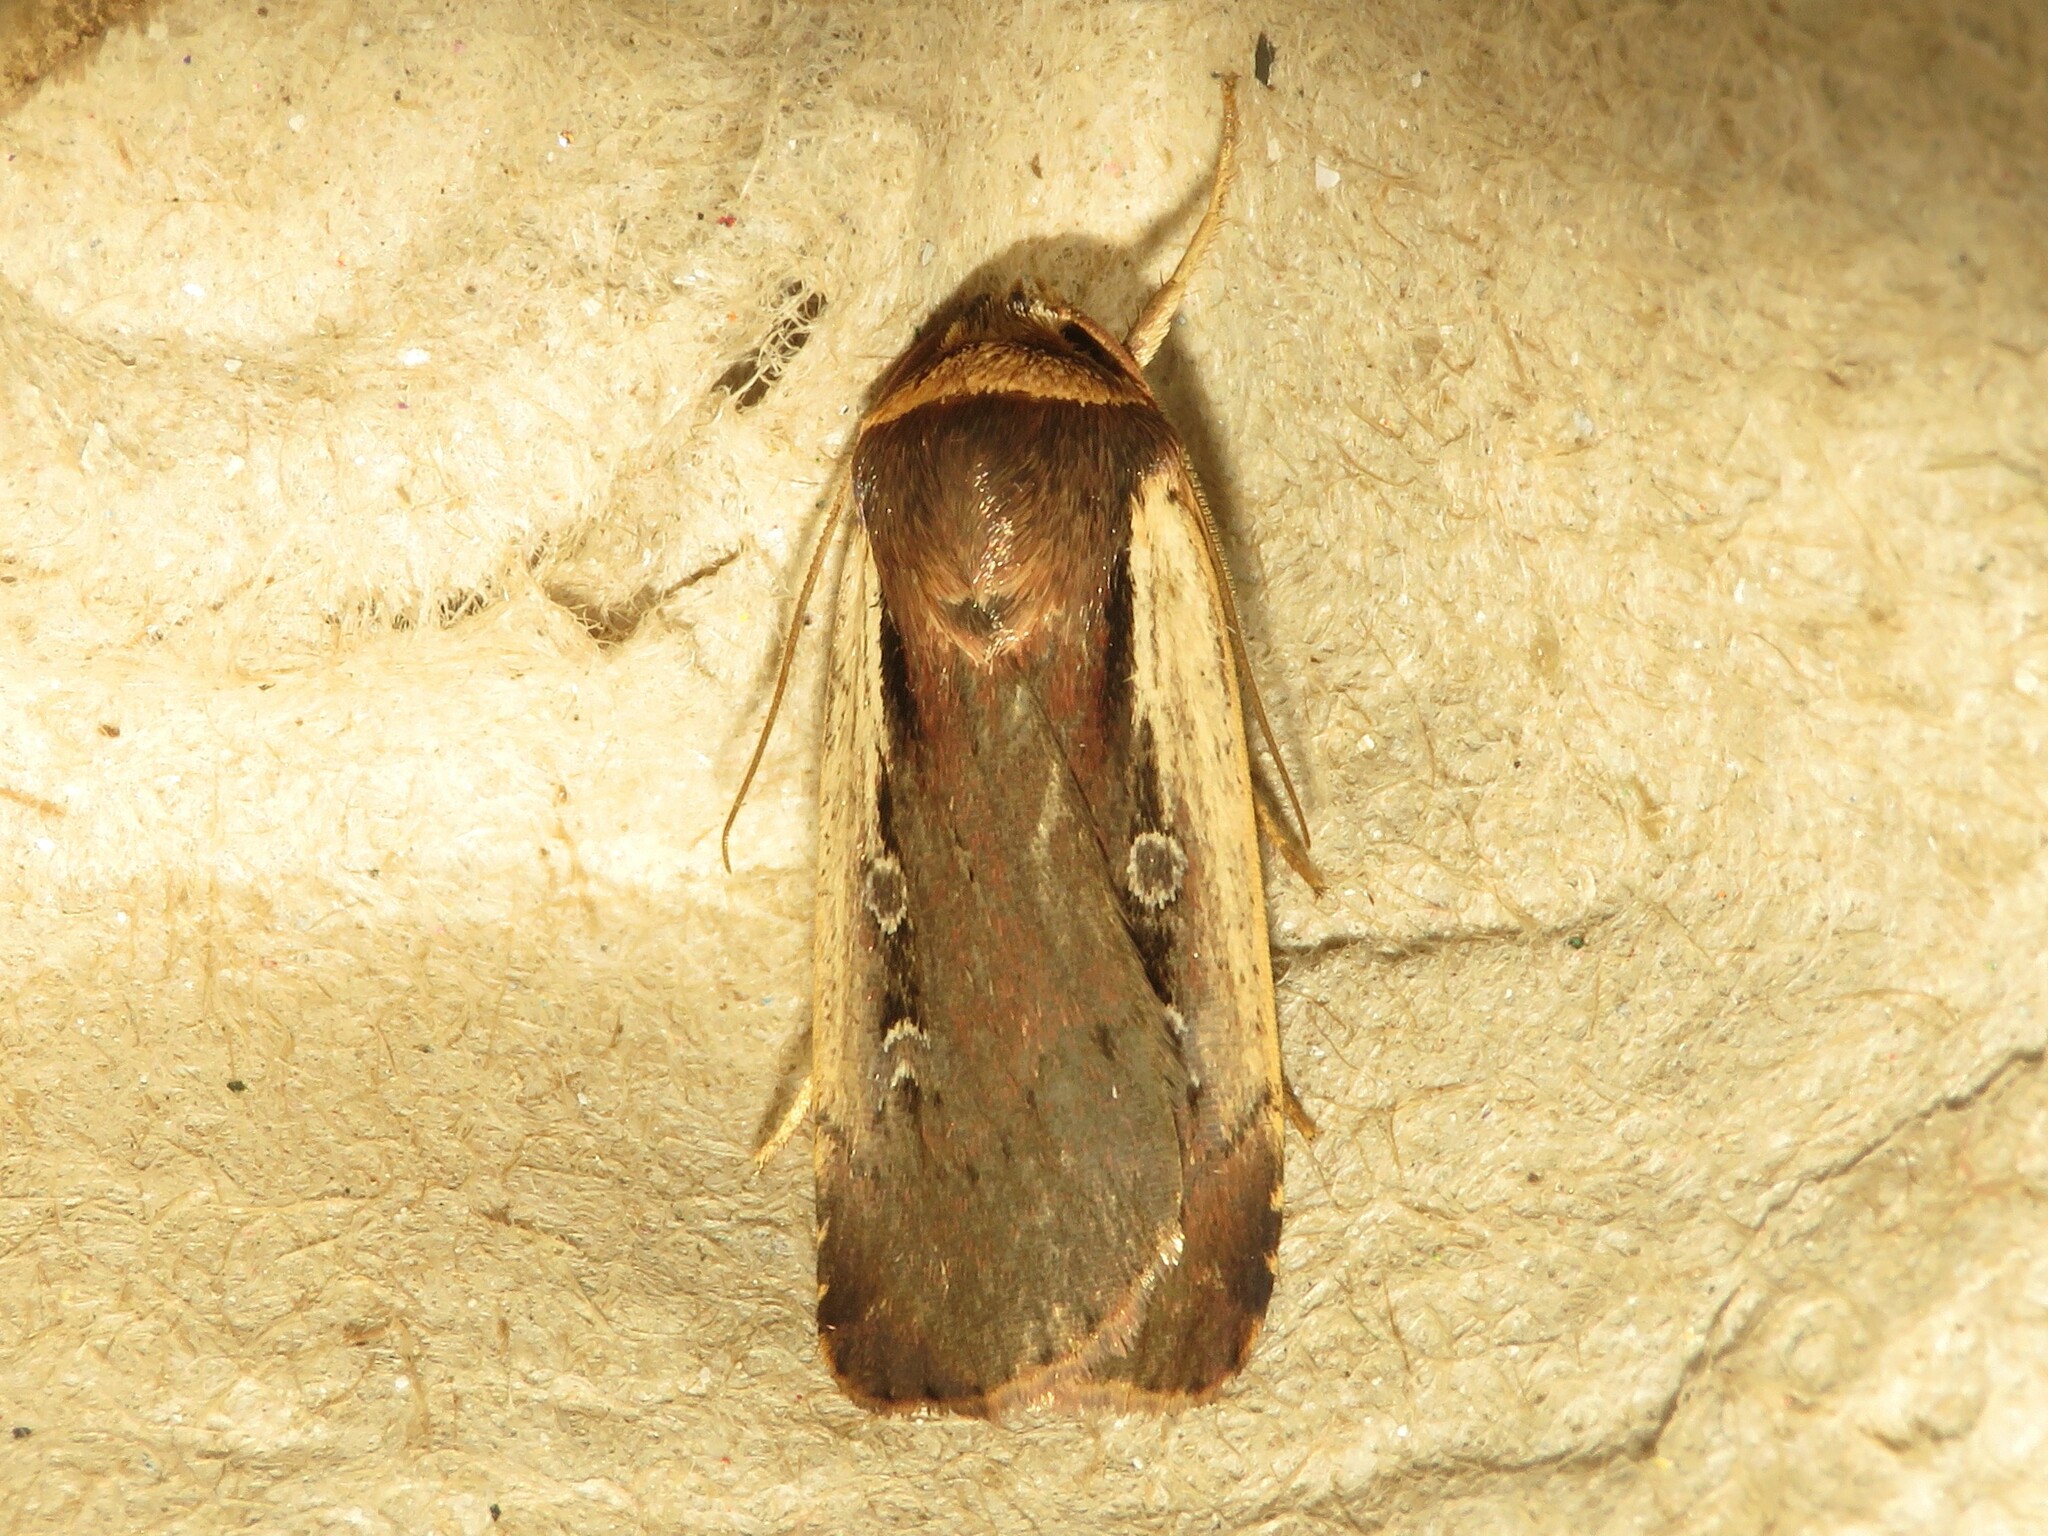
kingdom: Animalia
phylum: Arthropoda
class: Insecta
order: Lepidoptera
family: Noctuidae
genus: Ochropleura
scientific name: Ochropleura implecta
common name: Flame-shouldered dart
